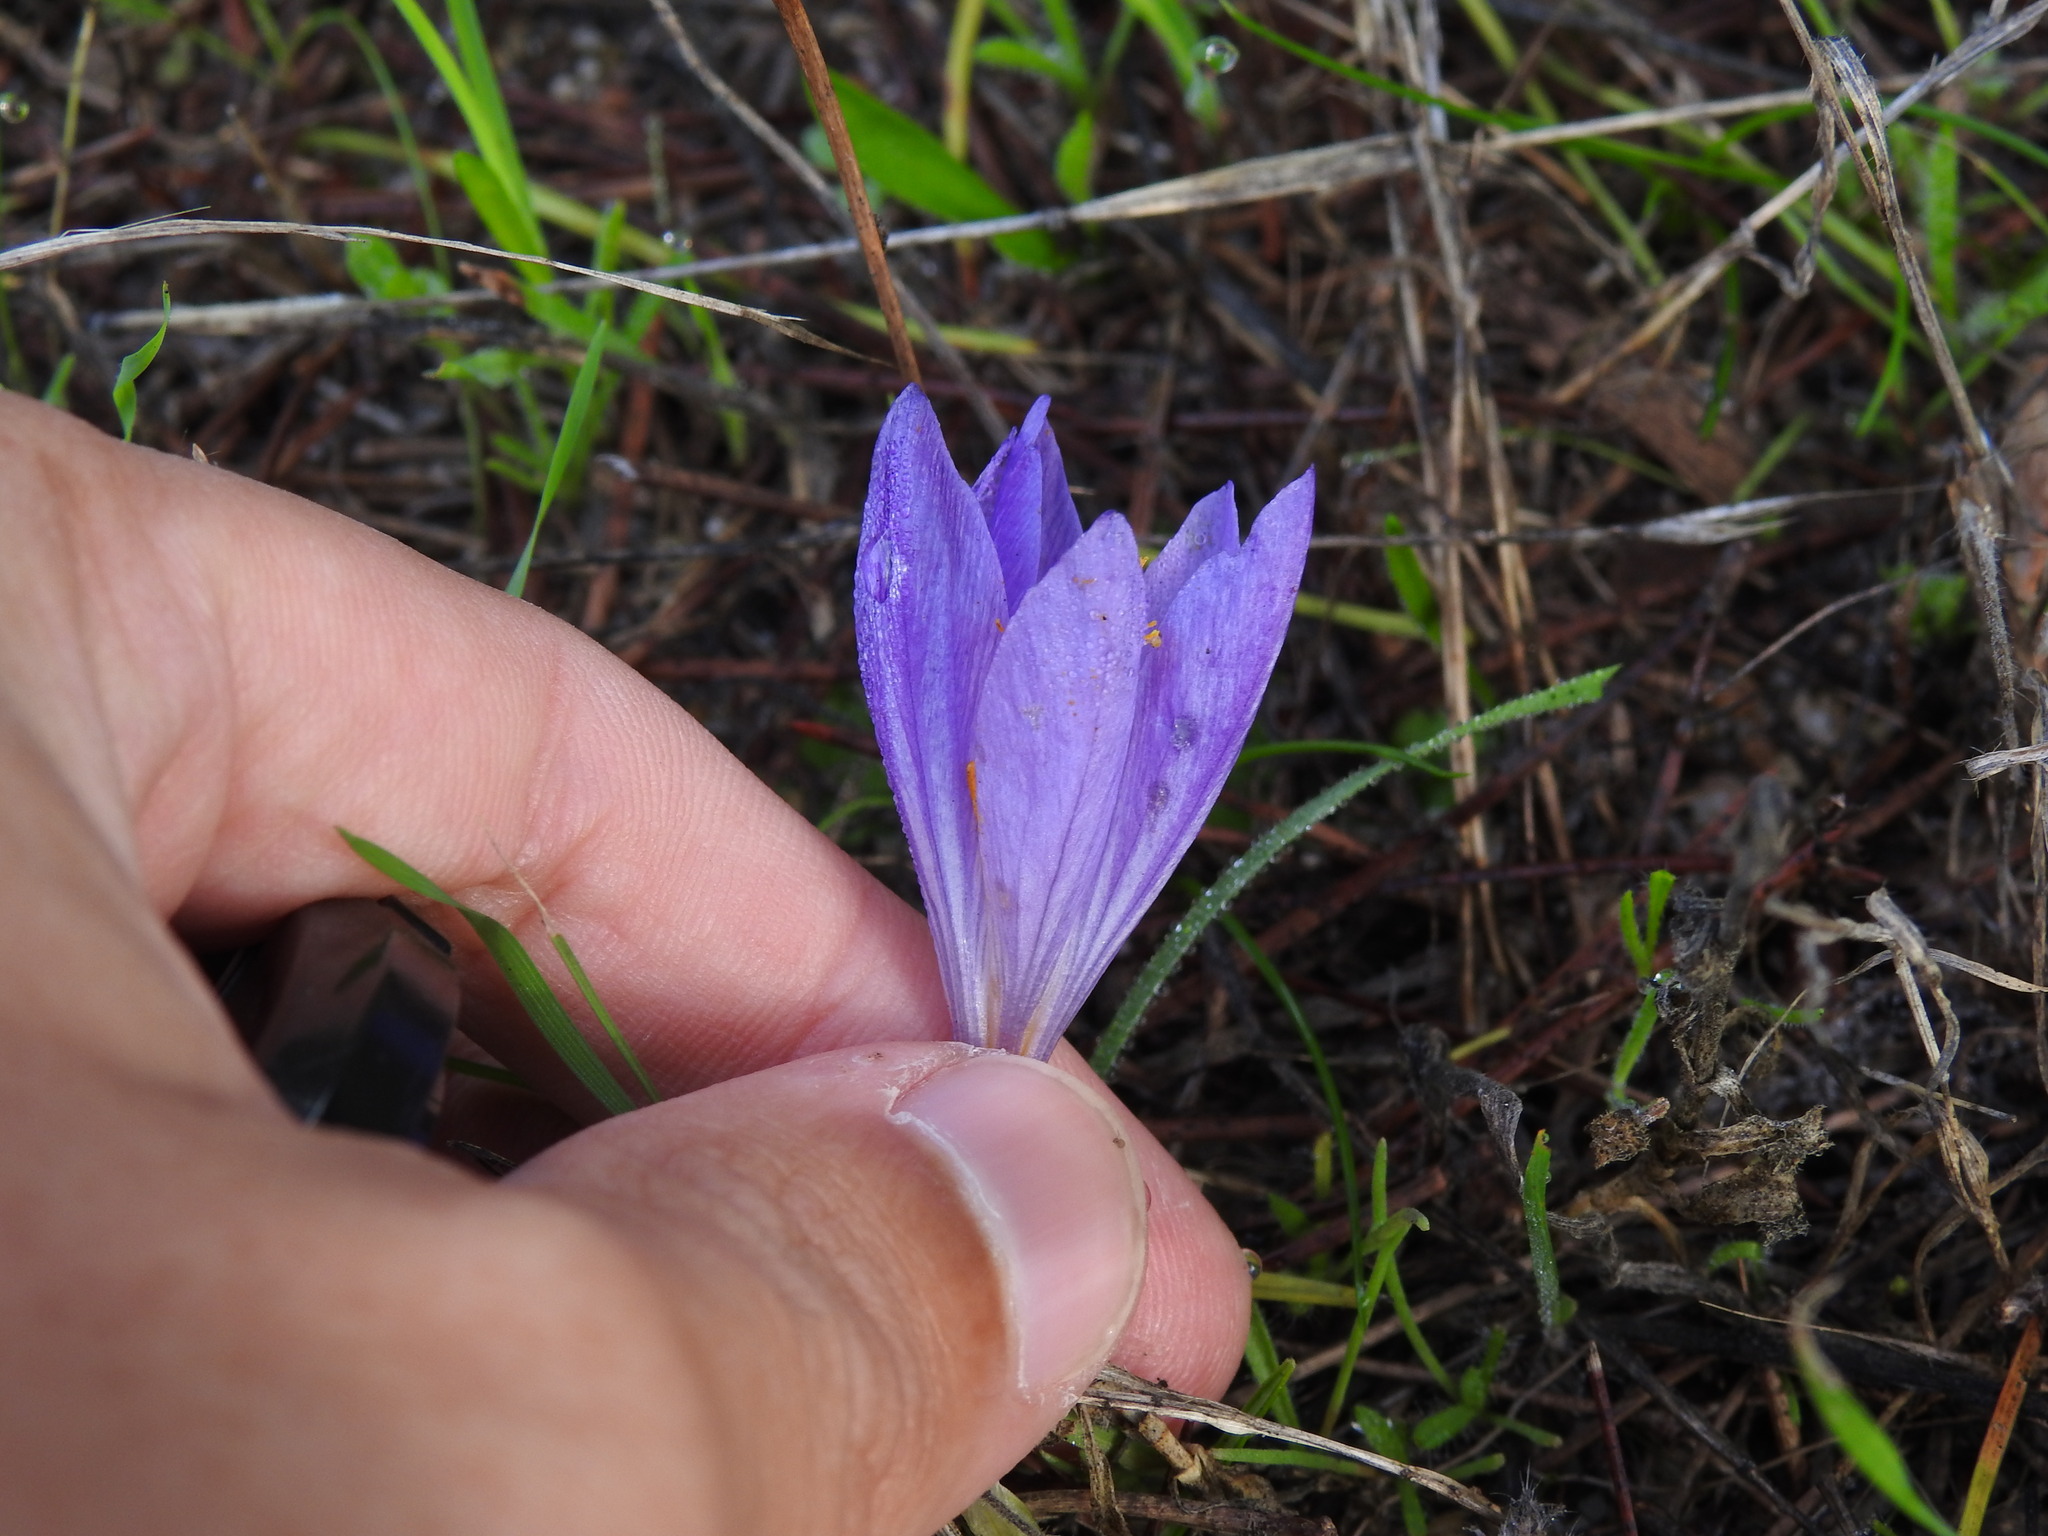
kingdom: Plantae
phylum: Tracheophyta
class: Liliopsida
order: Asparagales
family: Iridaceae
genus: Crocus
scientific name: Crocus serotinus
